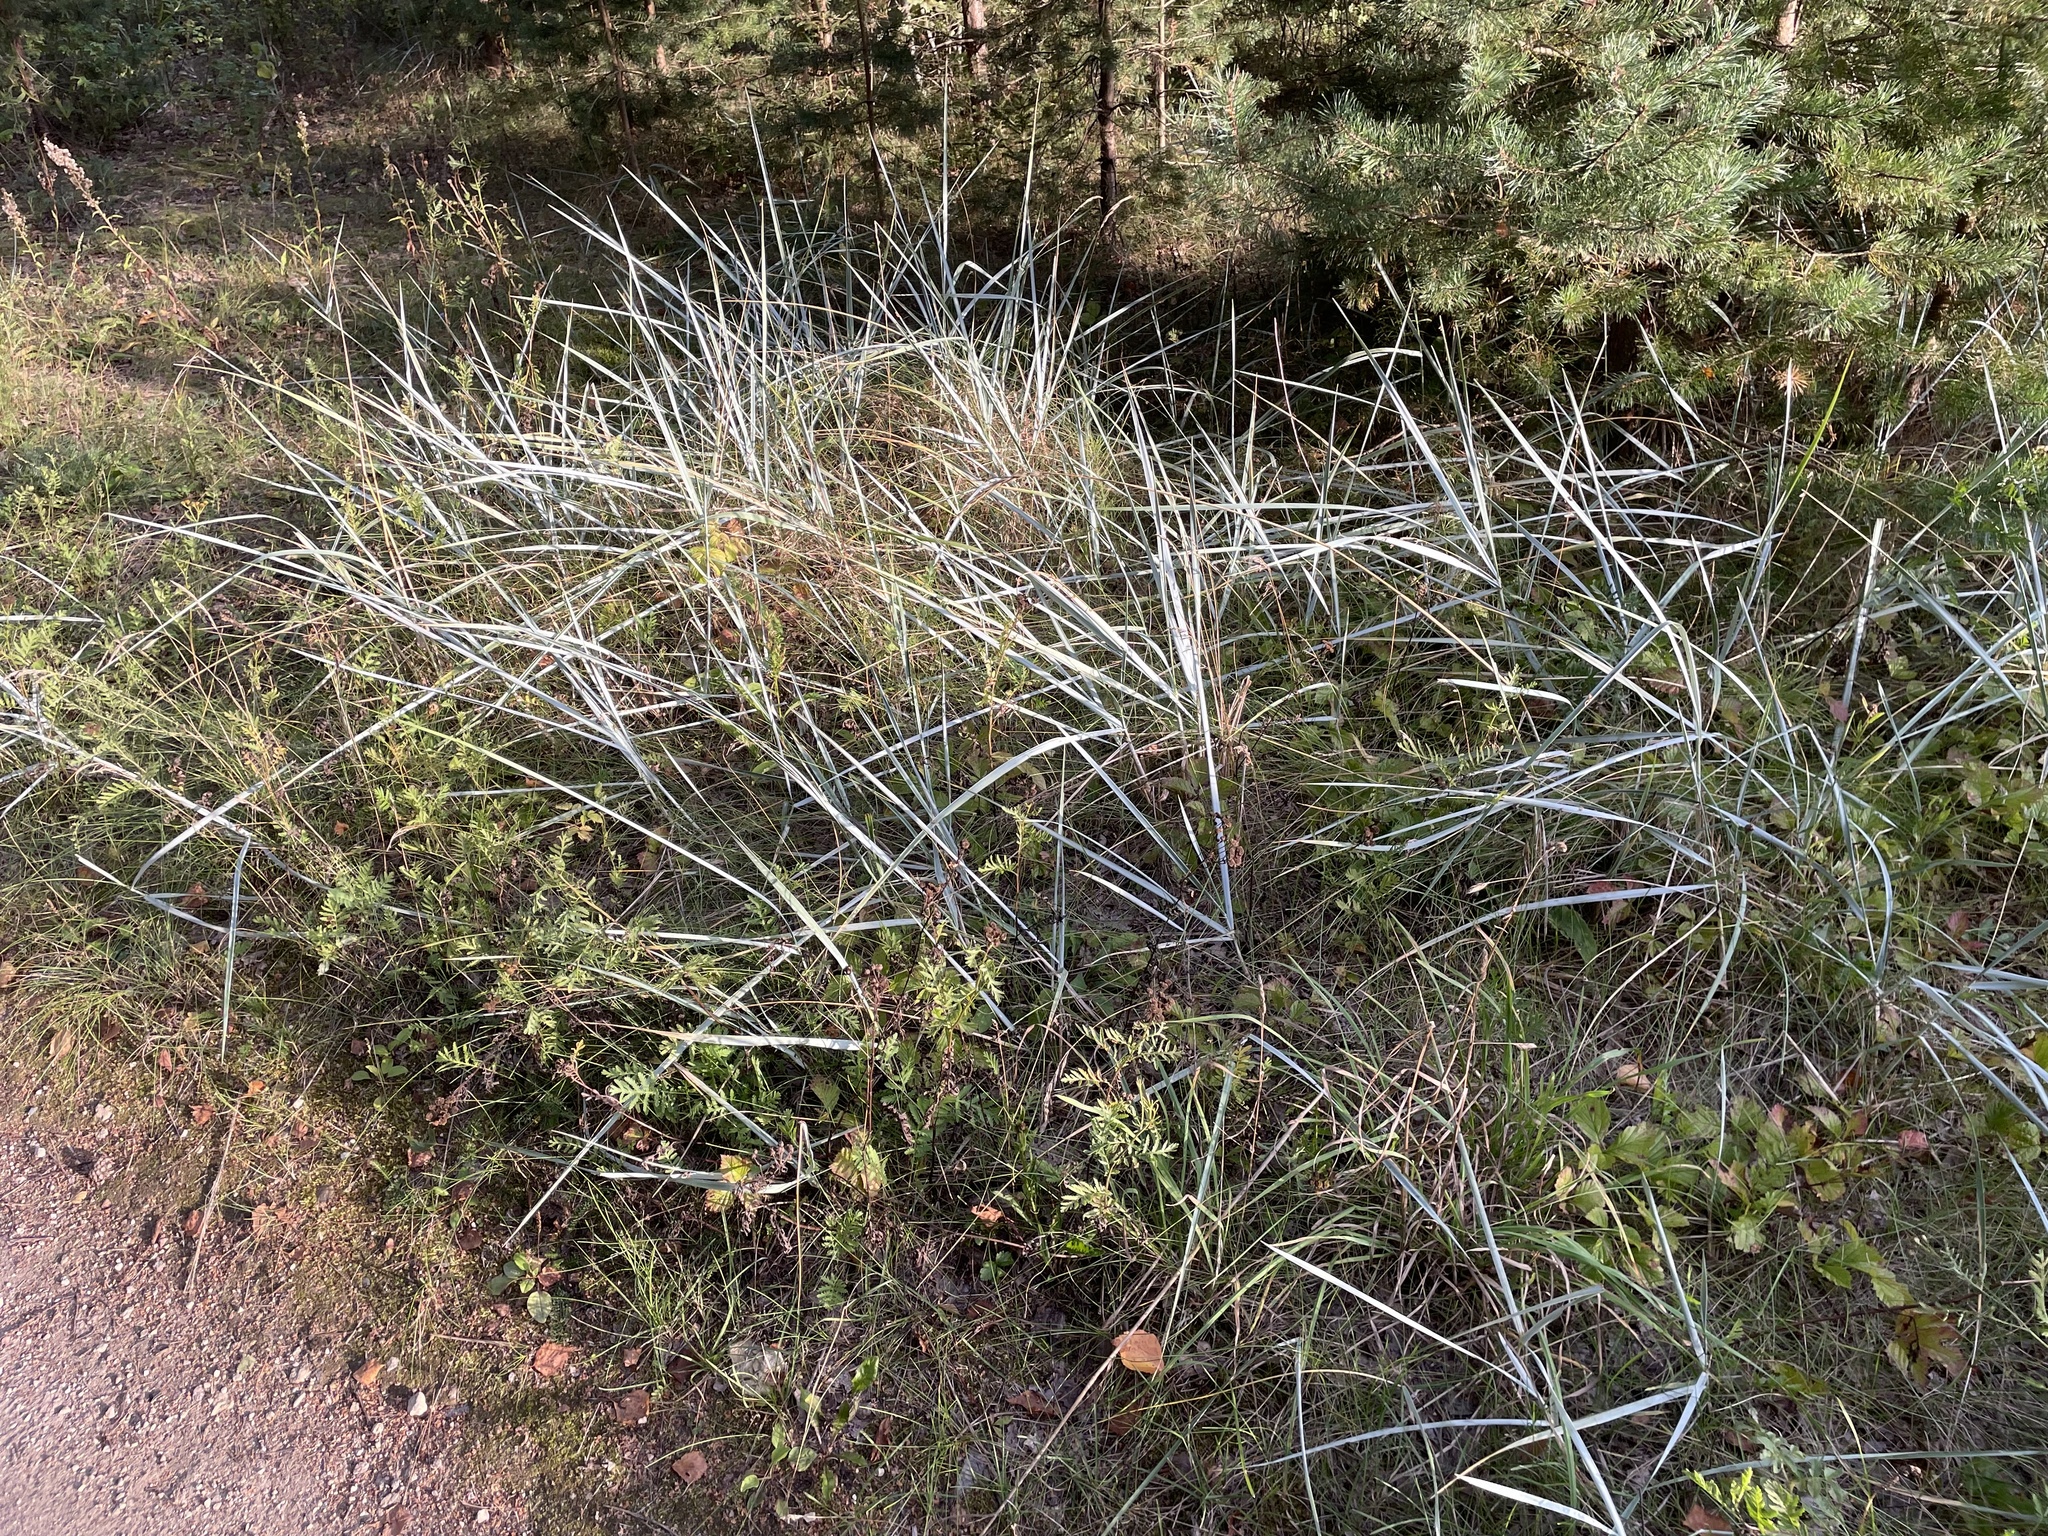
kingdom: Plantae
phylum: Tracheophyta
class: Liliopsida
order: Poales
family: Poaceae
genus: Leymus
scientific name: Leymus arenarius
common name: Lyme-grass
